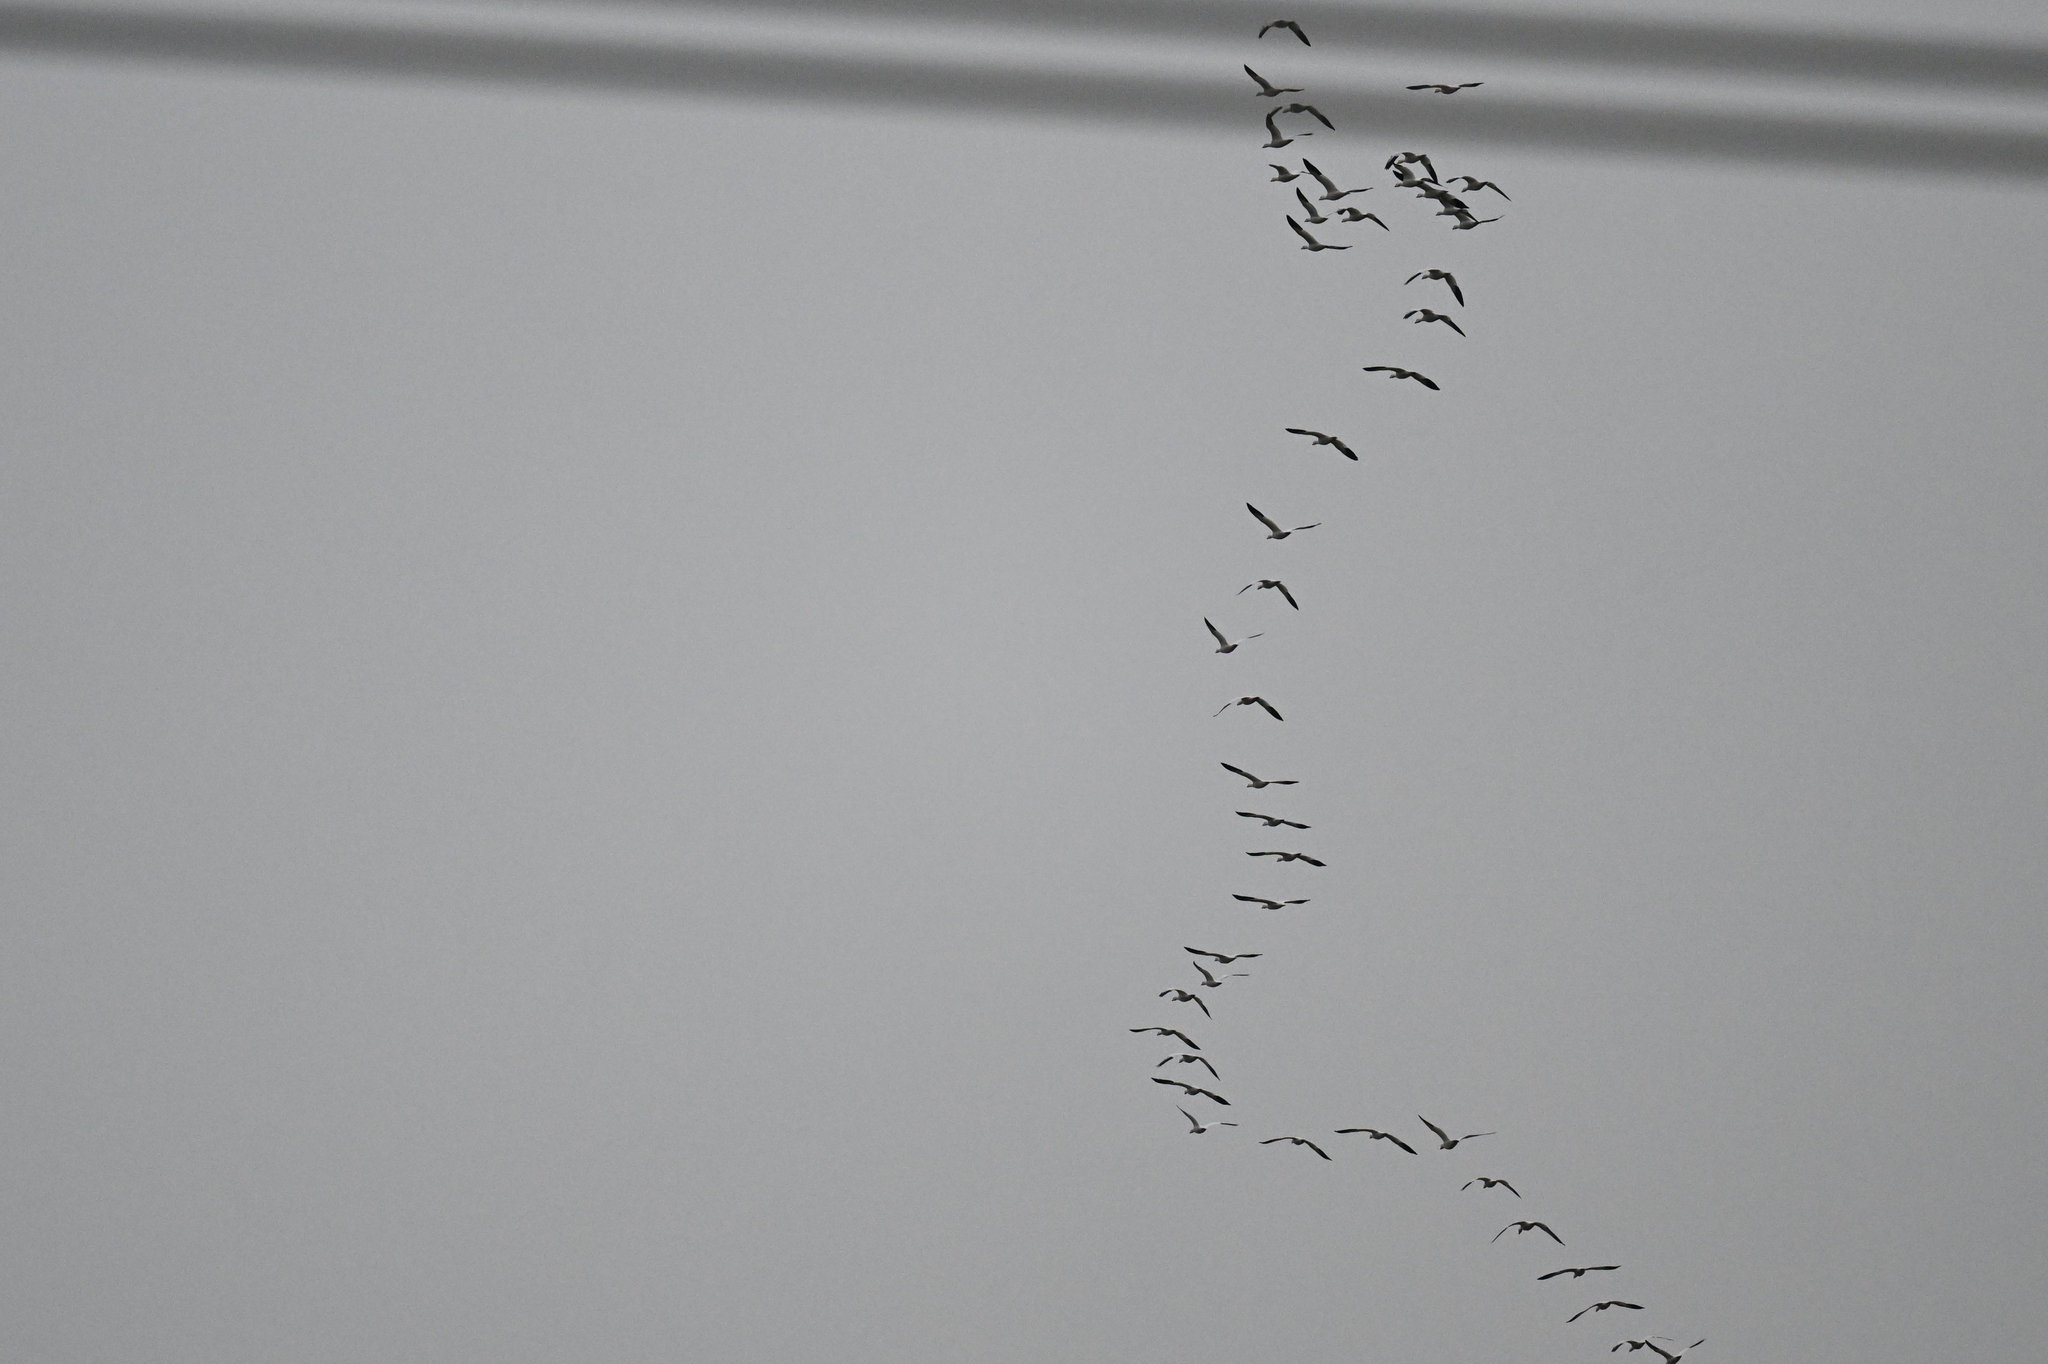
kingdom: Animalia
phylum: Chordata
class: Aves
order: Anseriformes
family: Anatidae
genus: Anser
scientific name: Anser caerulescens
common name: Snow goose
